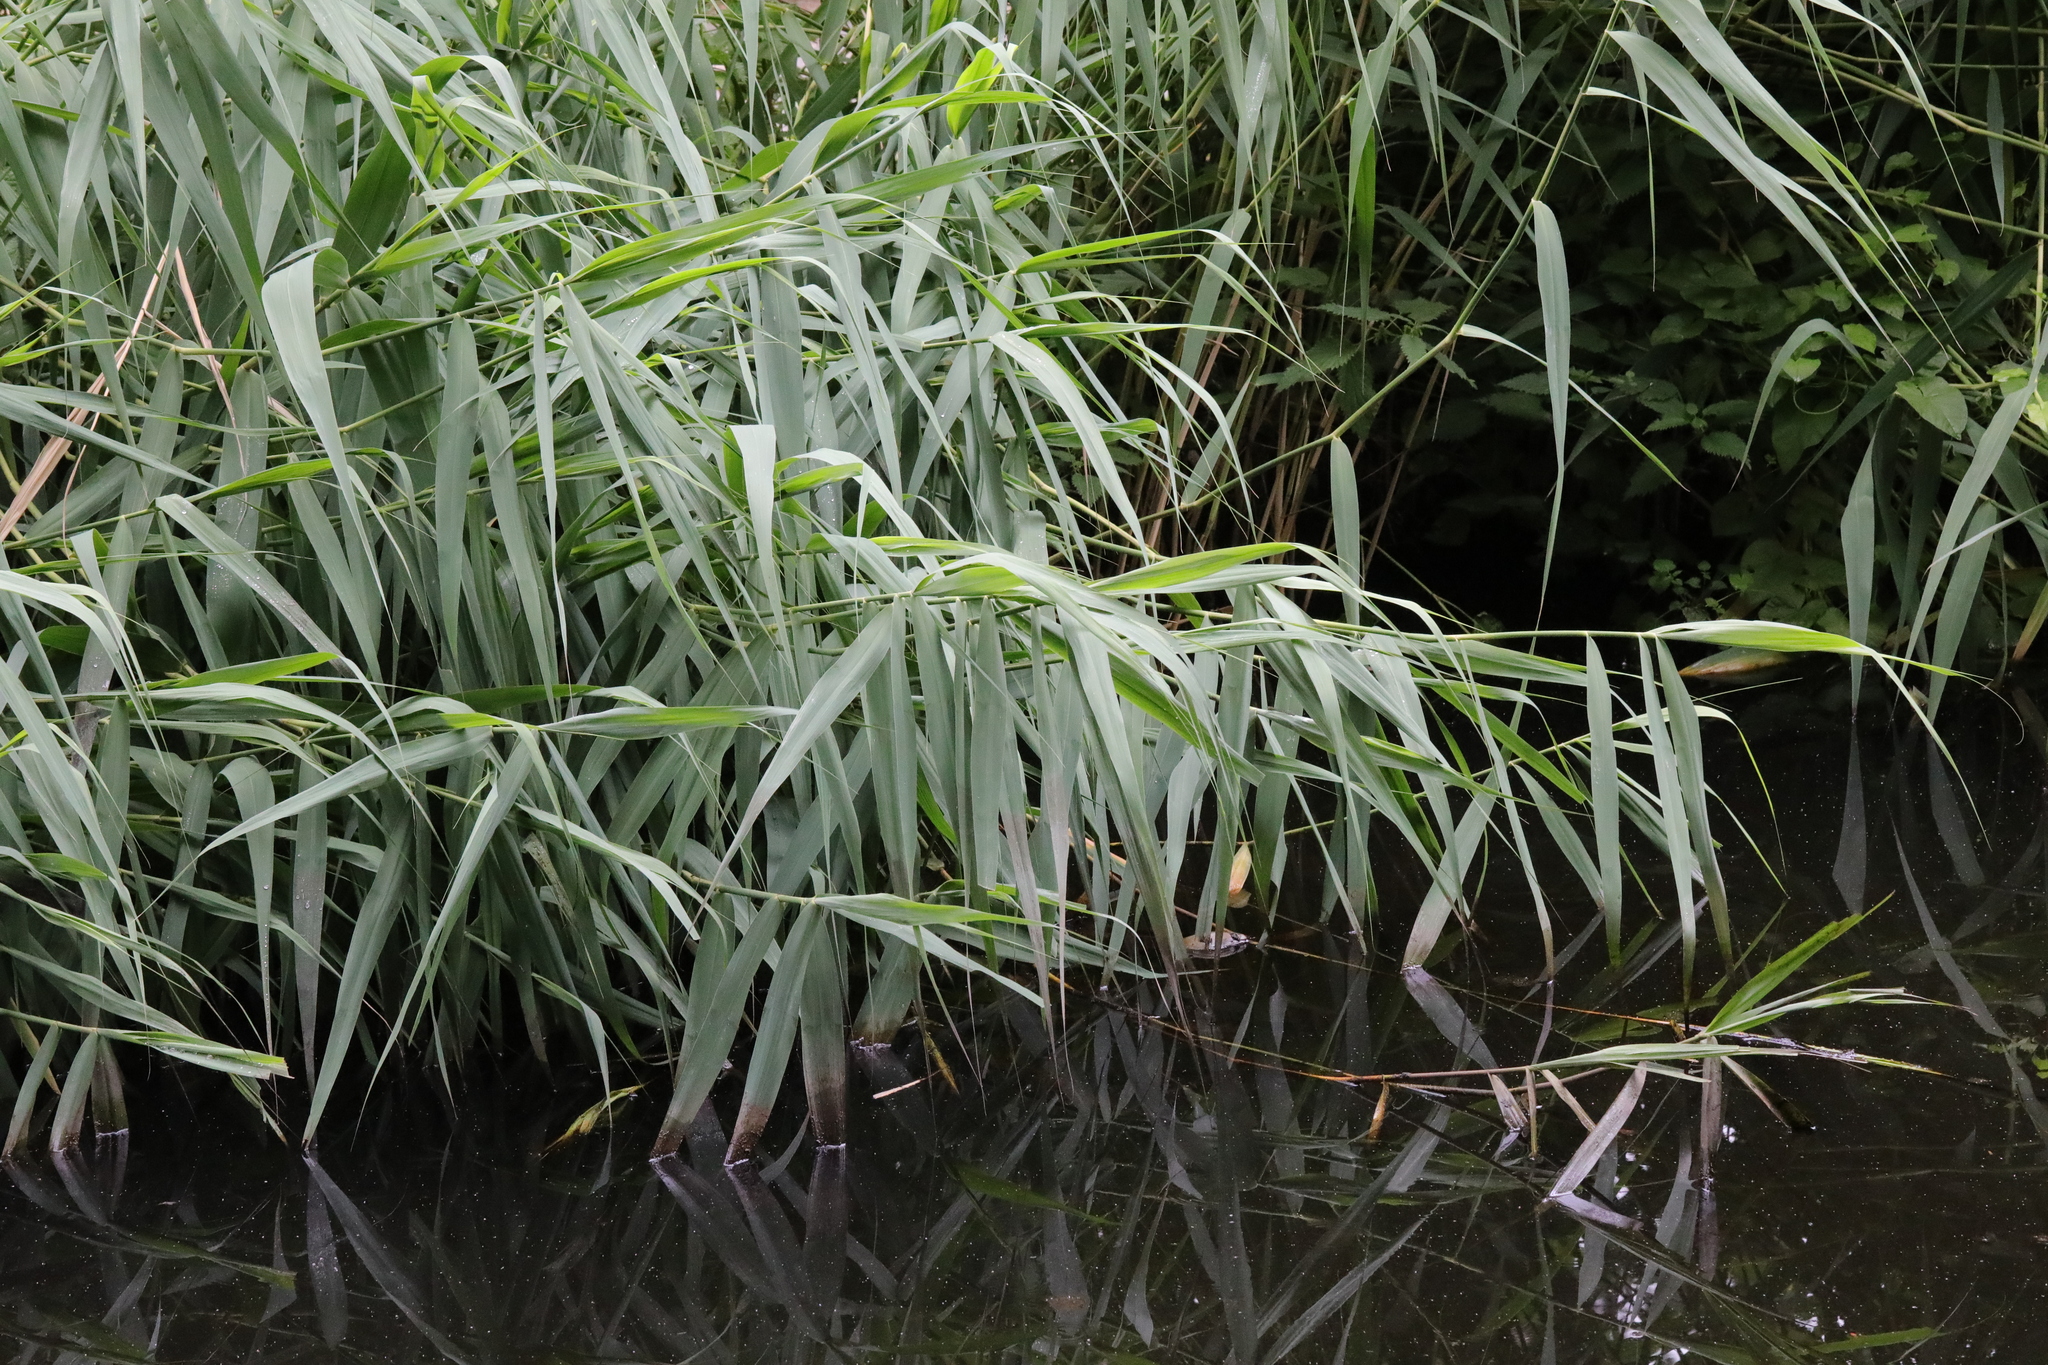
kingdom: Plantae
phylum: Tracheophyta
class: Liliopsida
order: Poales
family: Poaceae
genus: Phragmites
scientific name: Phragmites australis
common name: Common reed
